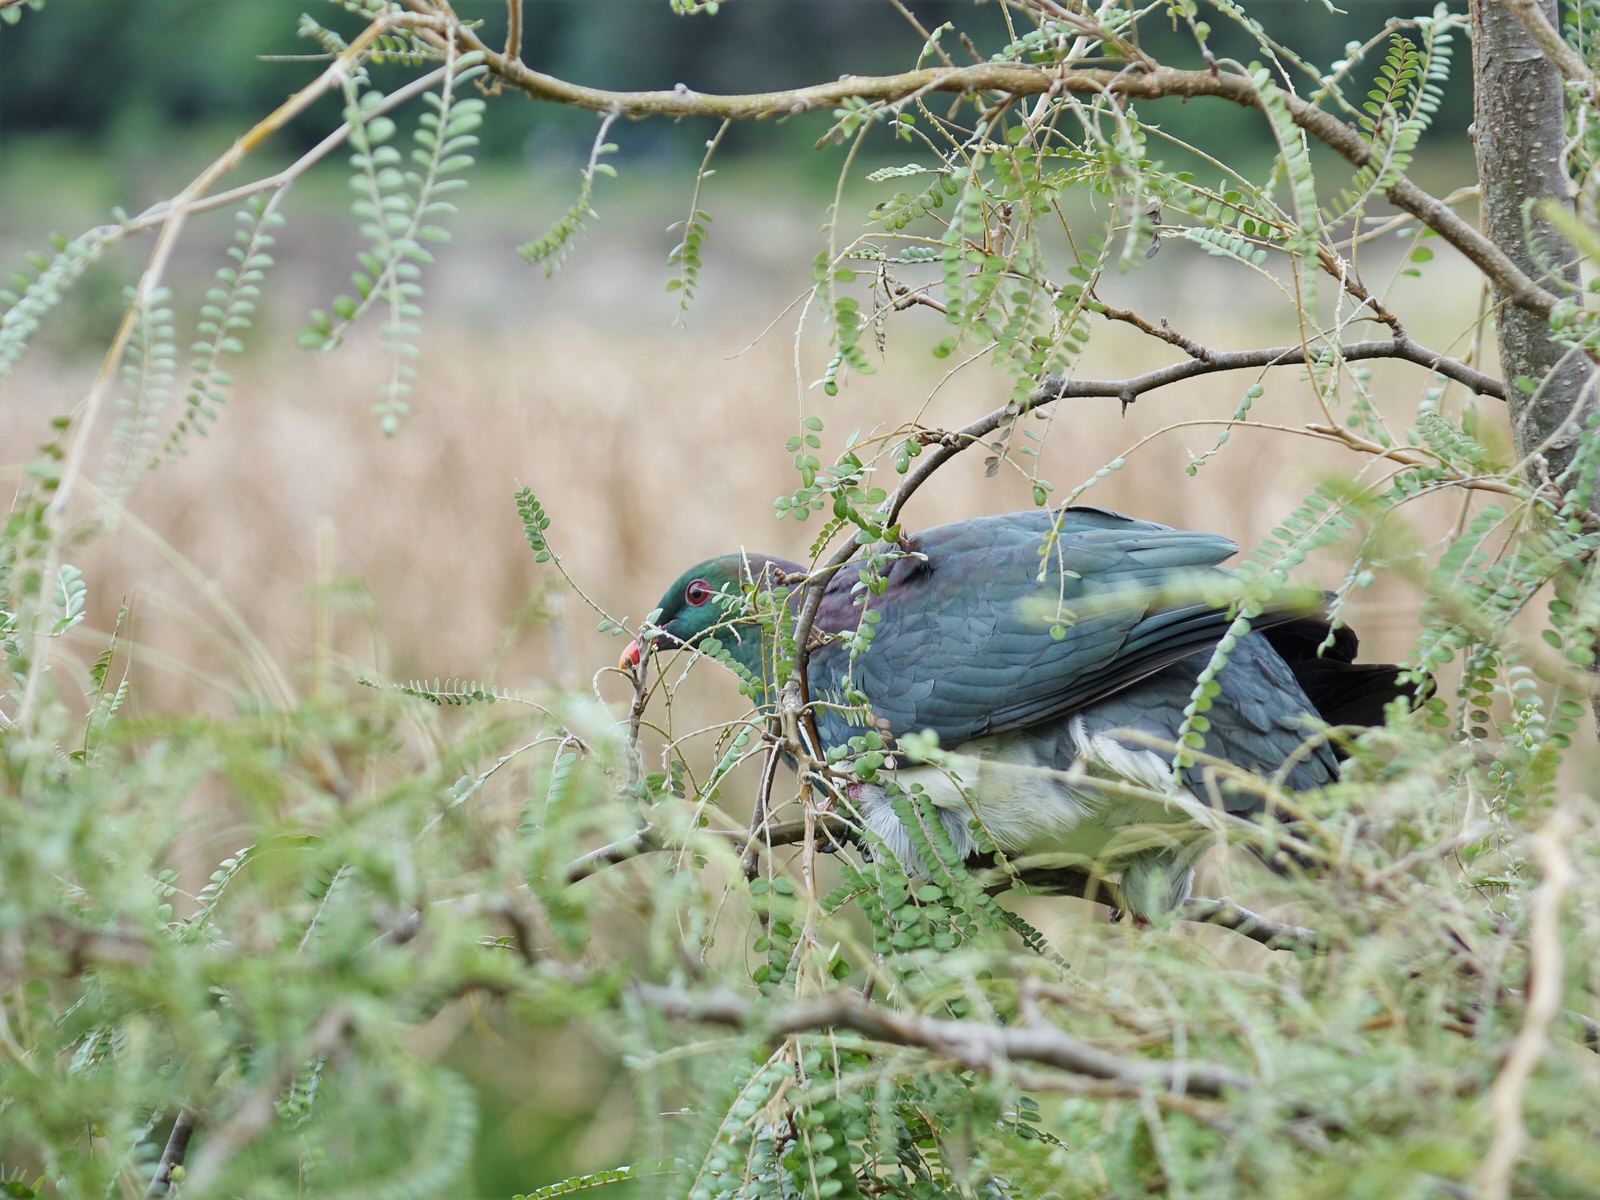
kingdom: Animalia
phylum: Chordata
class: Aves
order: Columbiformes
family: Columbidae
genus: Hemiphaga
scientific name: Hemiphaga novaeseelandiae
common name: New zealand pigeon
